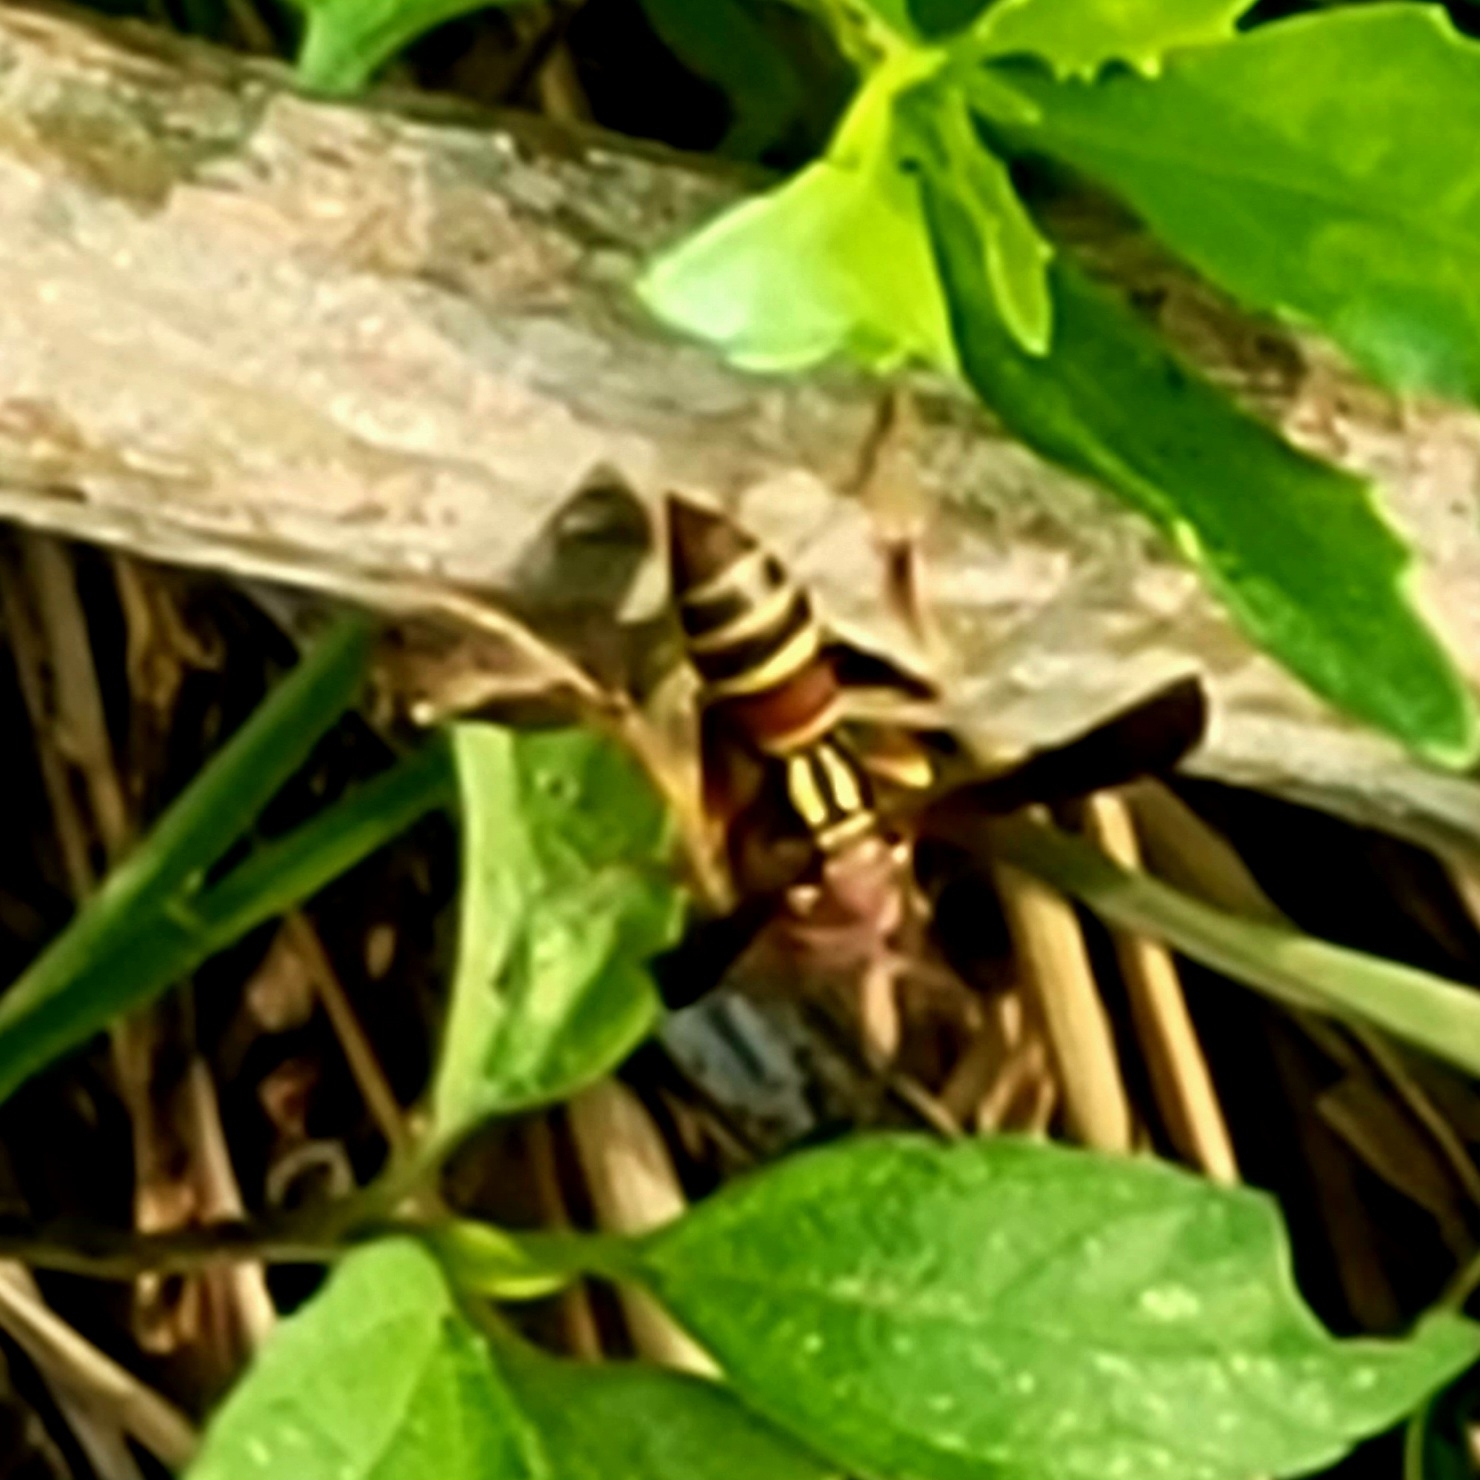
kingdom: Animalia
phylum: Arthropoda
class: Insecta
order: Hymenoptera
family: Eumenidae
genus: Polistes
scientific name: Polistes dorsalis
